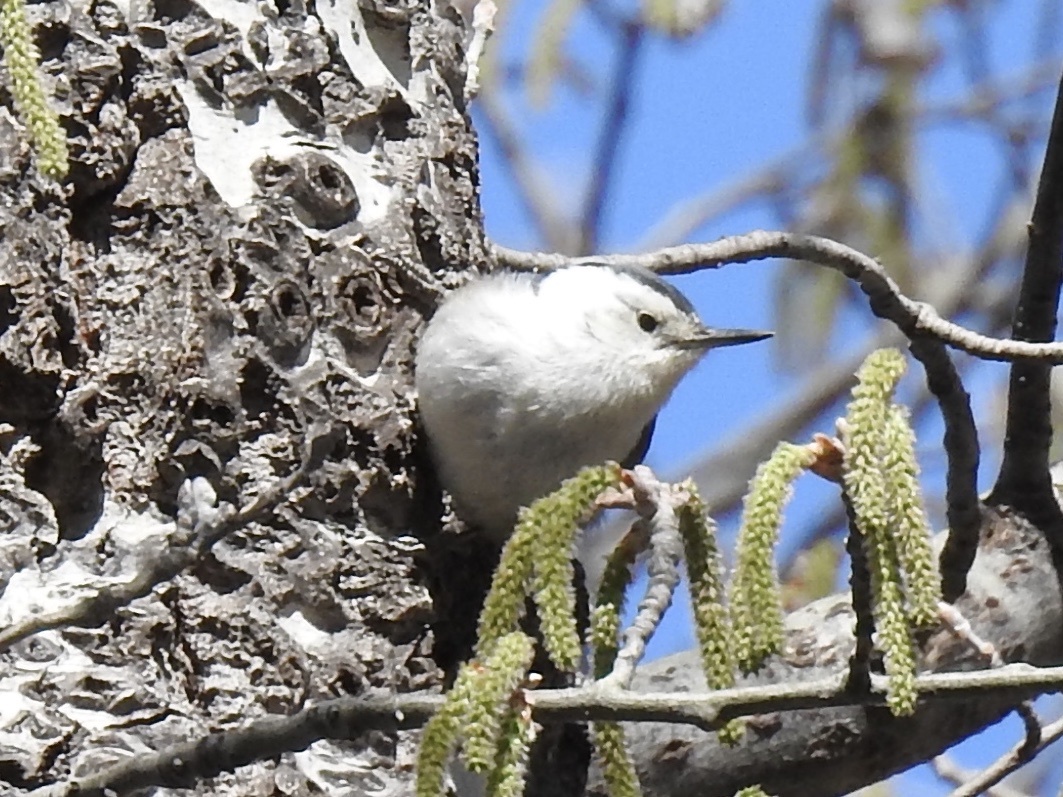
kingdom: Animalia
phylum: Chordata
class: Aves
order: Passeriformes
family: Sittidae
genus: Sitta
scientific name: Sitta carolinensis
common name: White-breasted nuthatch
